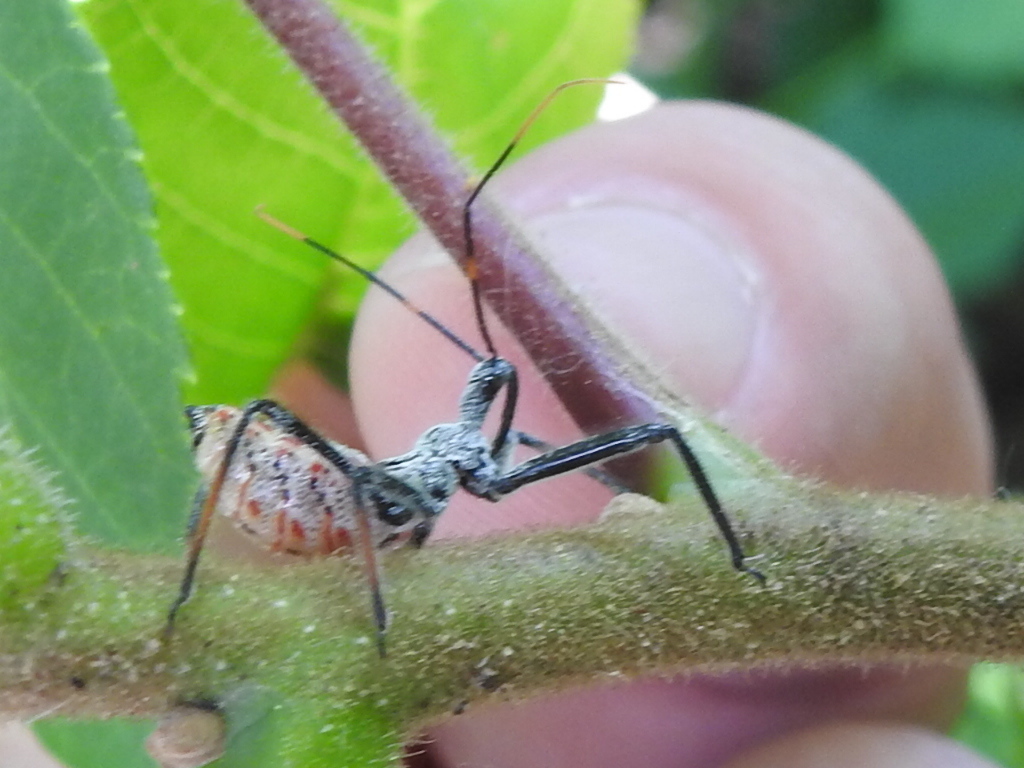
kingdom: Animalia
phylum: Arthropoda
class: Insecta
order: Hemiptera
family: Reduviidae
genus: Arilus
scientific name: Arilus cristatus
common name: North american wheel bug
